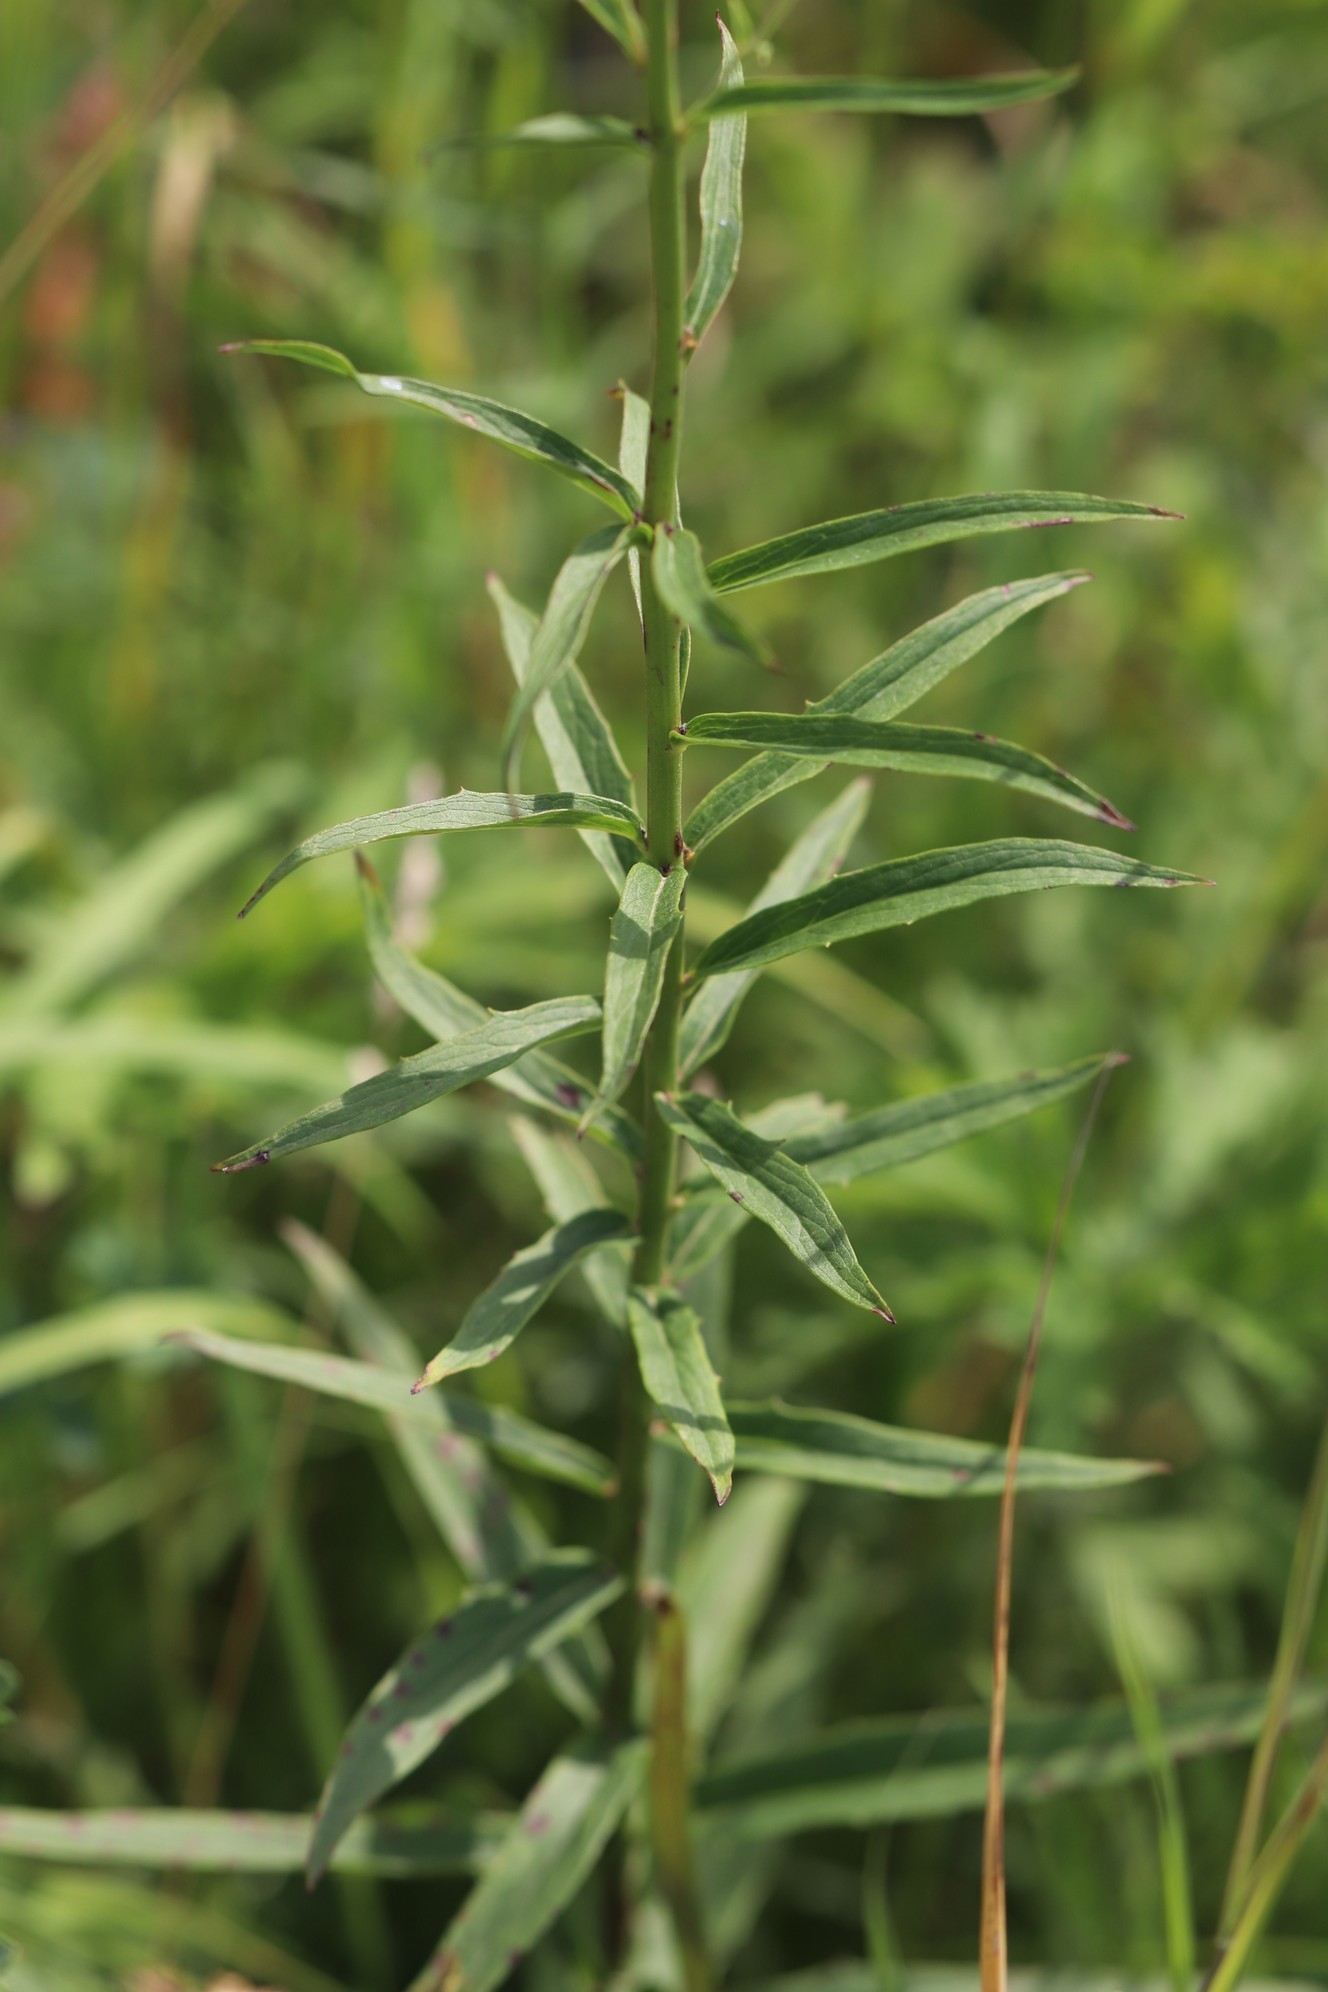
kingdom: Plantae
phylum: Tracheophyta
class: Magnoliopsida
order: Asterales
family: Asteraceae
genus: Hieracium
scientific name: Hieracium umbellatum
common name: Northern hawkweed
